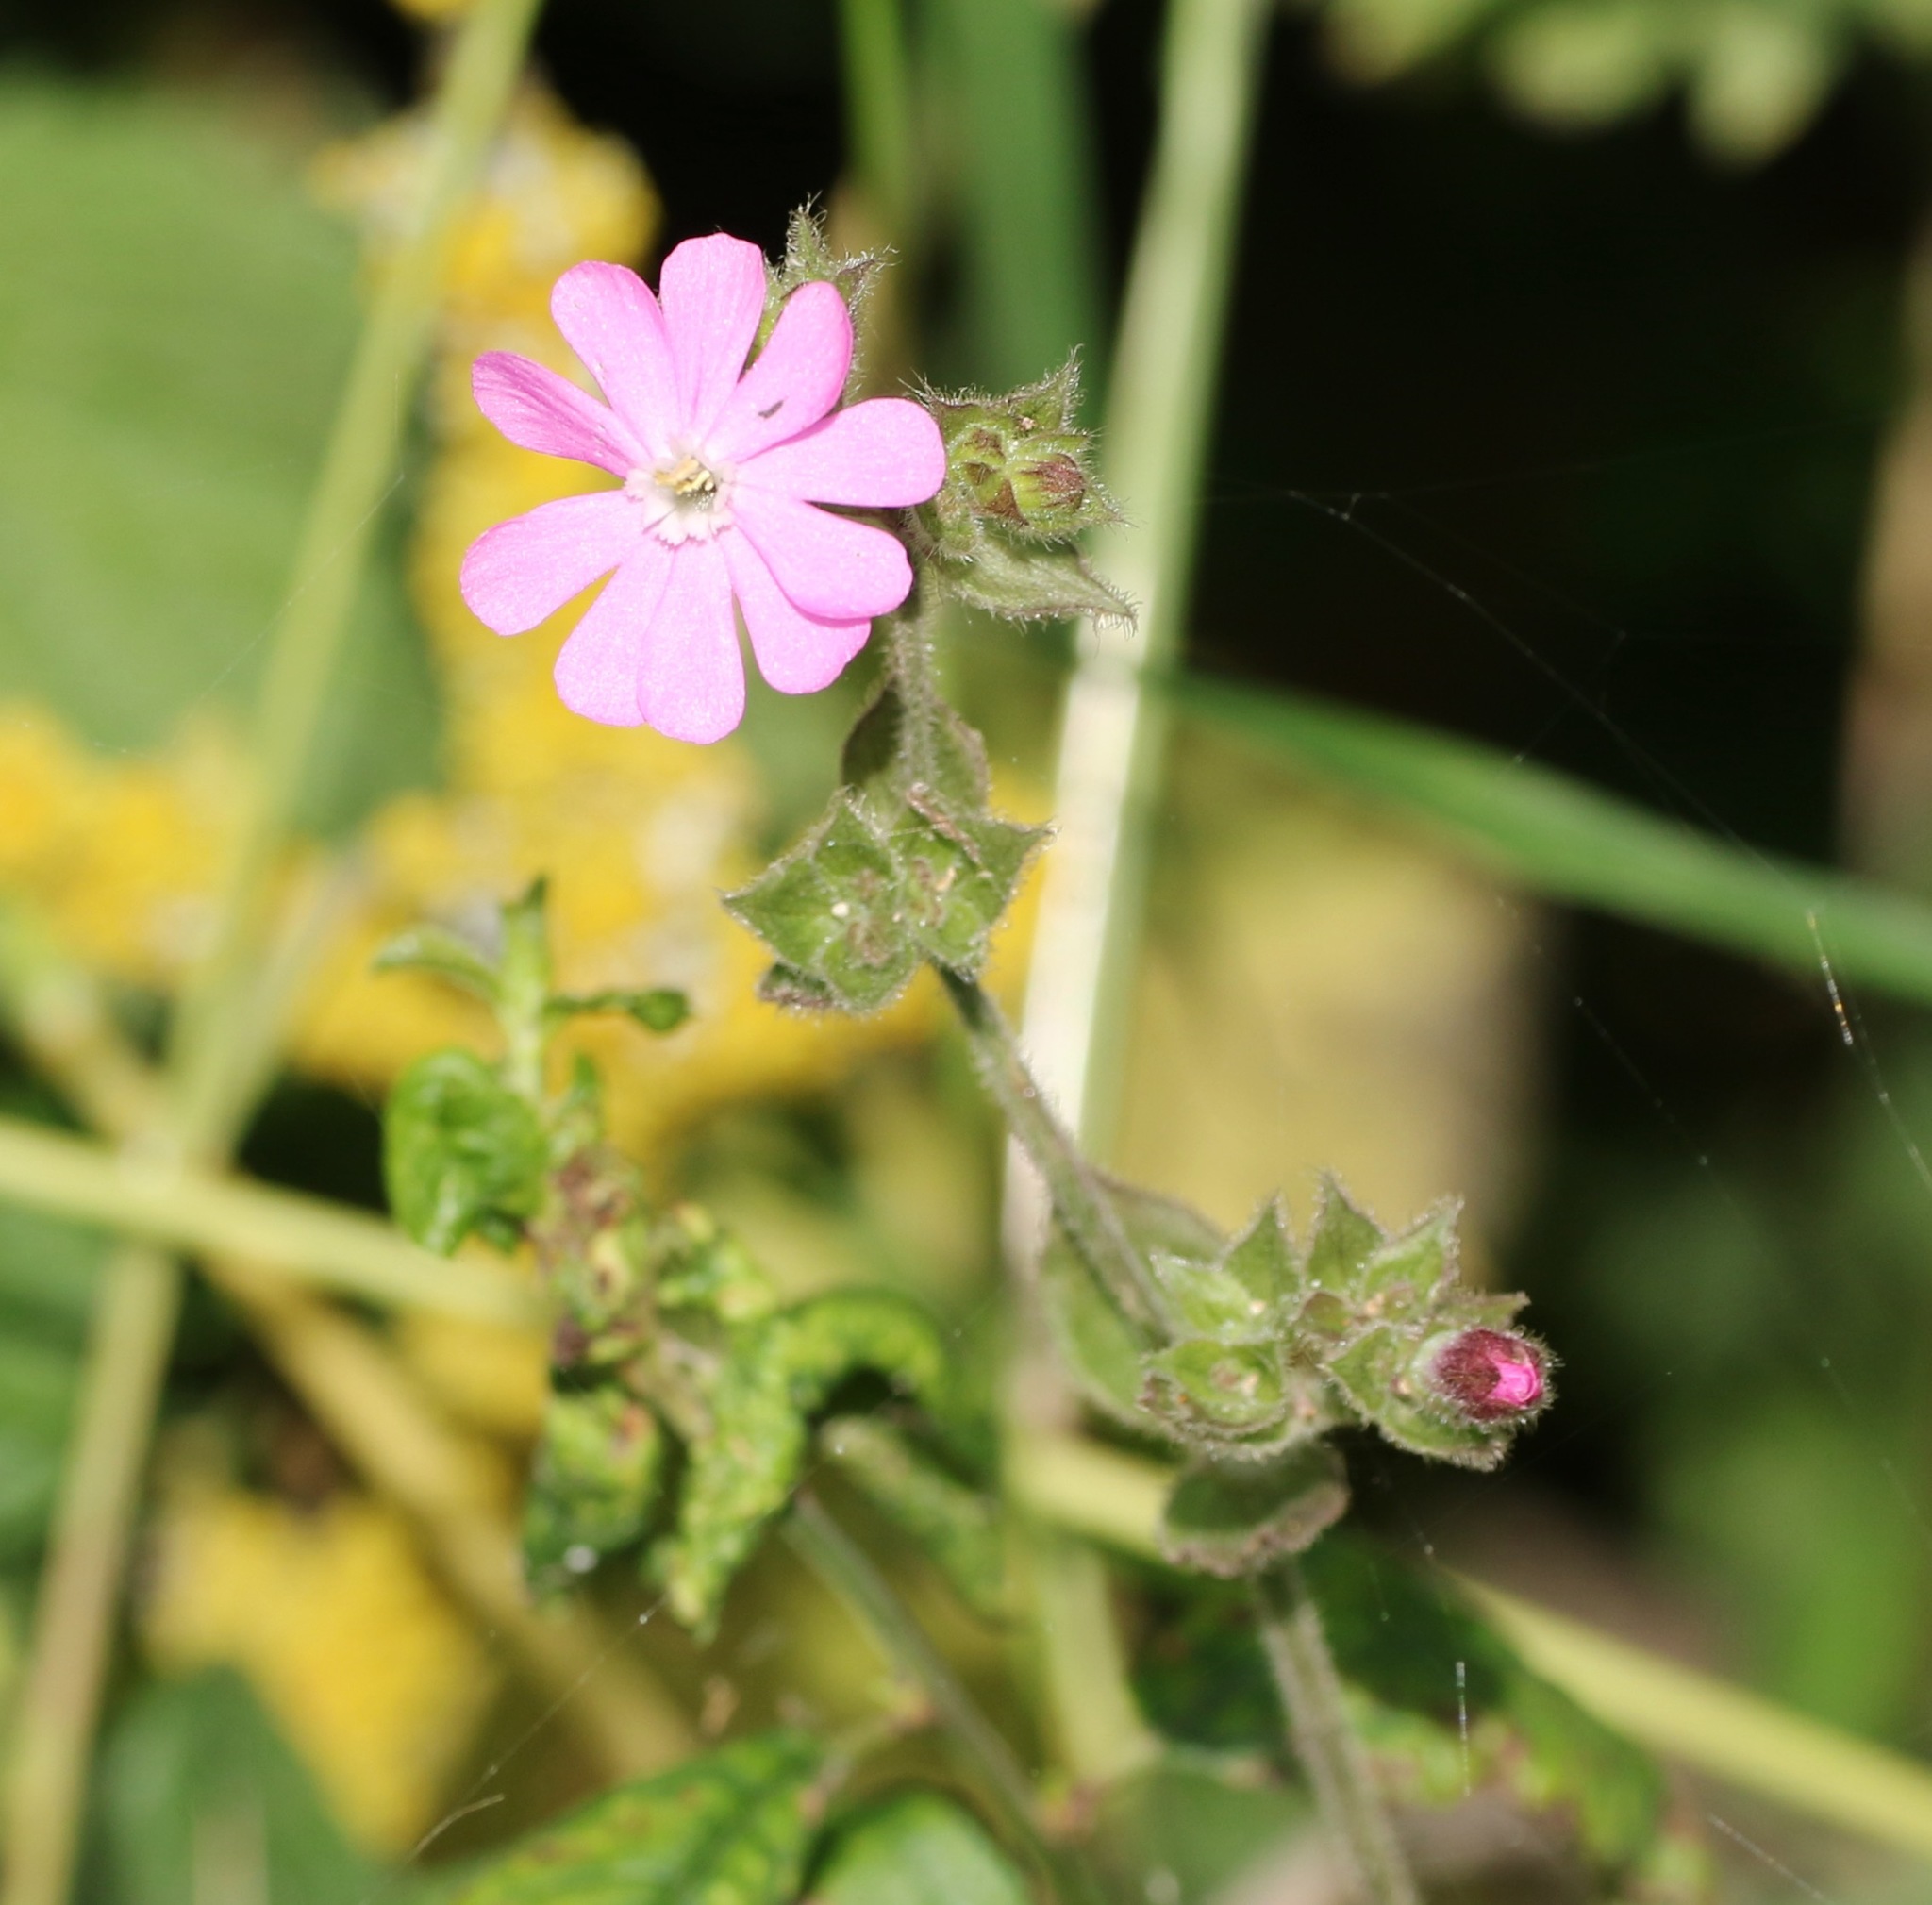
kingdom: Plantae
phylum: Tracheophyta
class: Magnoliopsida
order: Caryophyllales
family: Caryophyllaceae
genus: Silene
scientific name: Silene dioica
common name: Red campion
